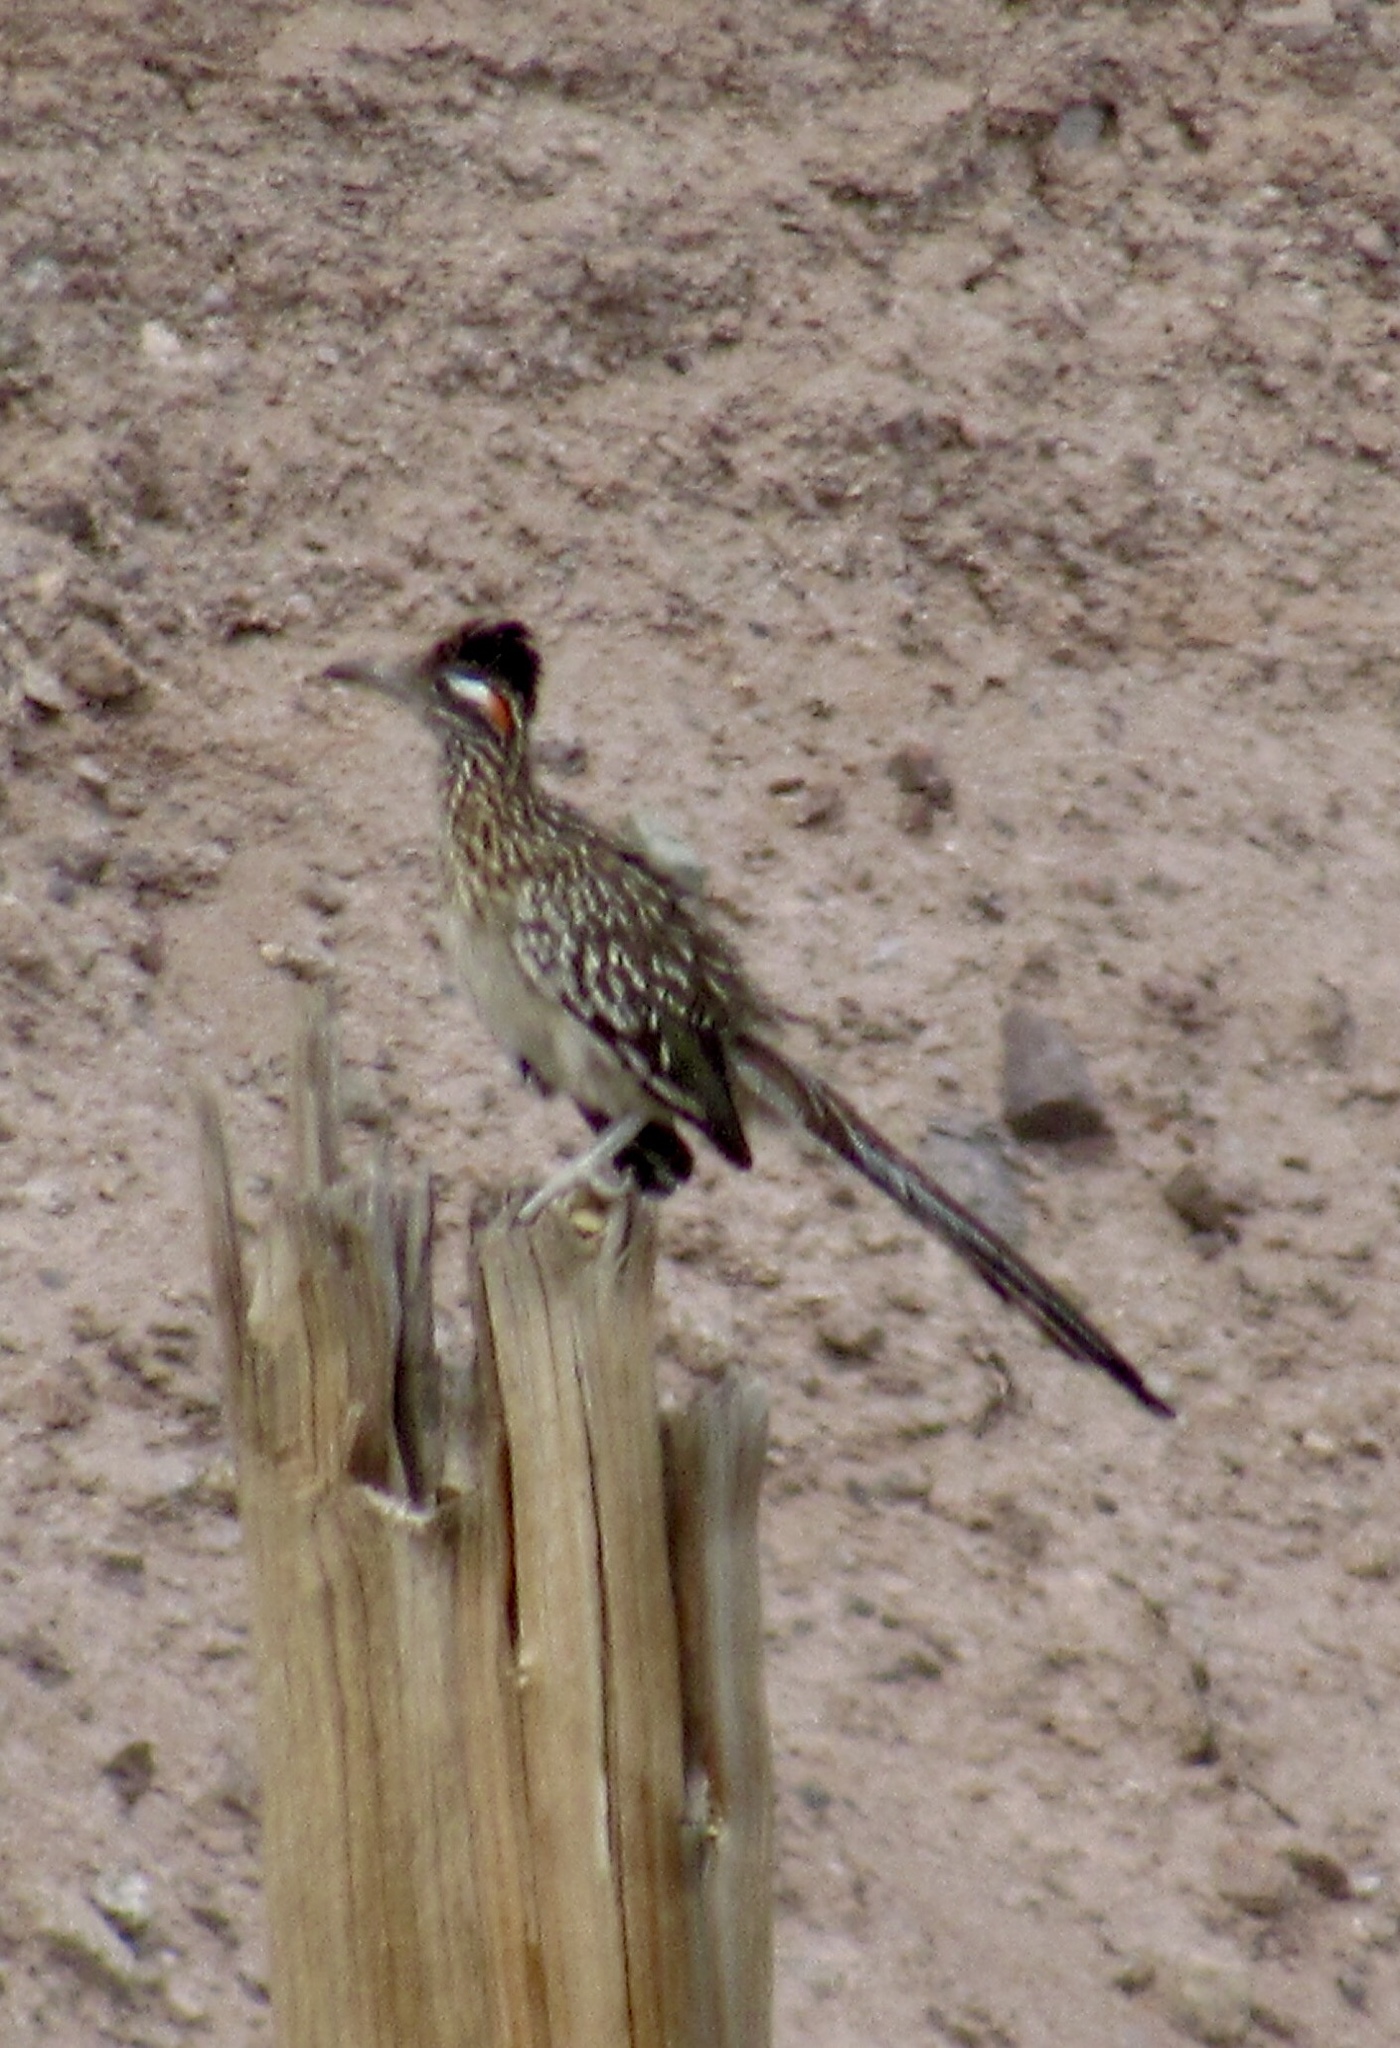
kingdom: Animalia
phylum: Chordata
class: Aves
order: Cuculiformes
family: Cuculidae
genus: Geococcyx
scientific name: Geococcyx californianus
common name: Greater roadrunner
